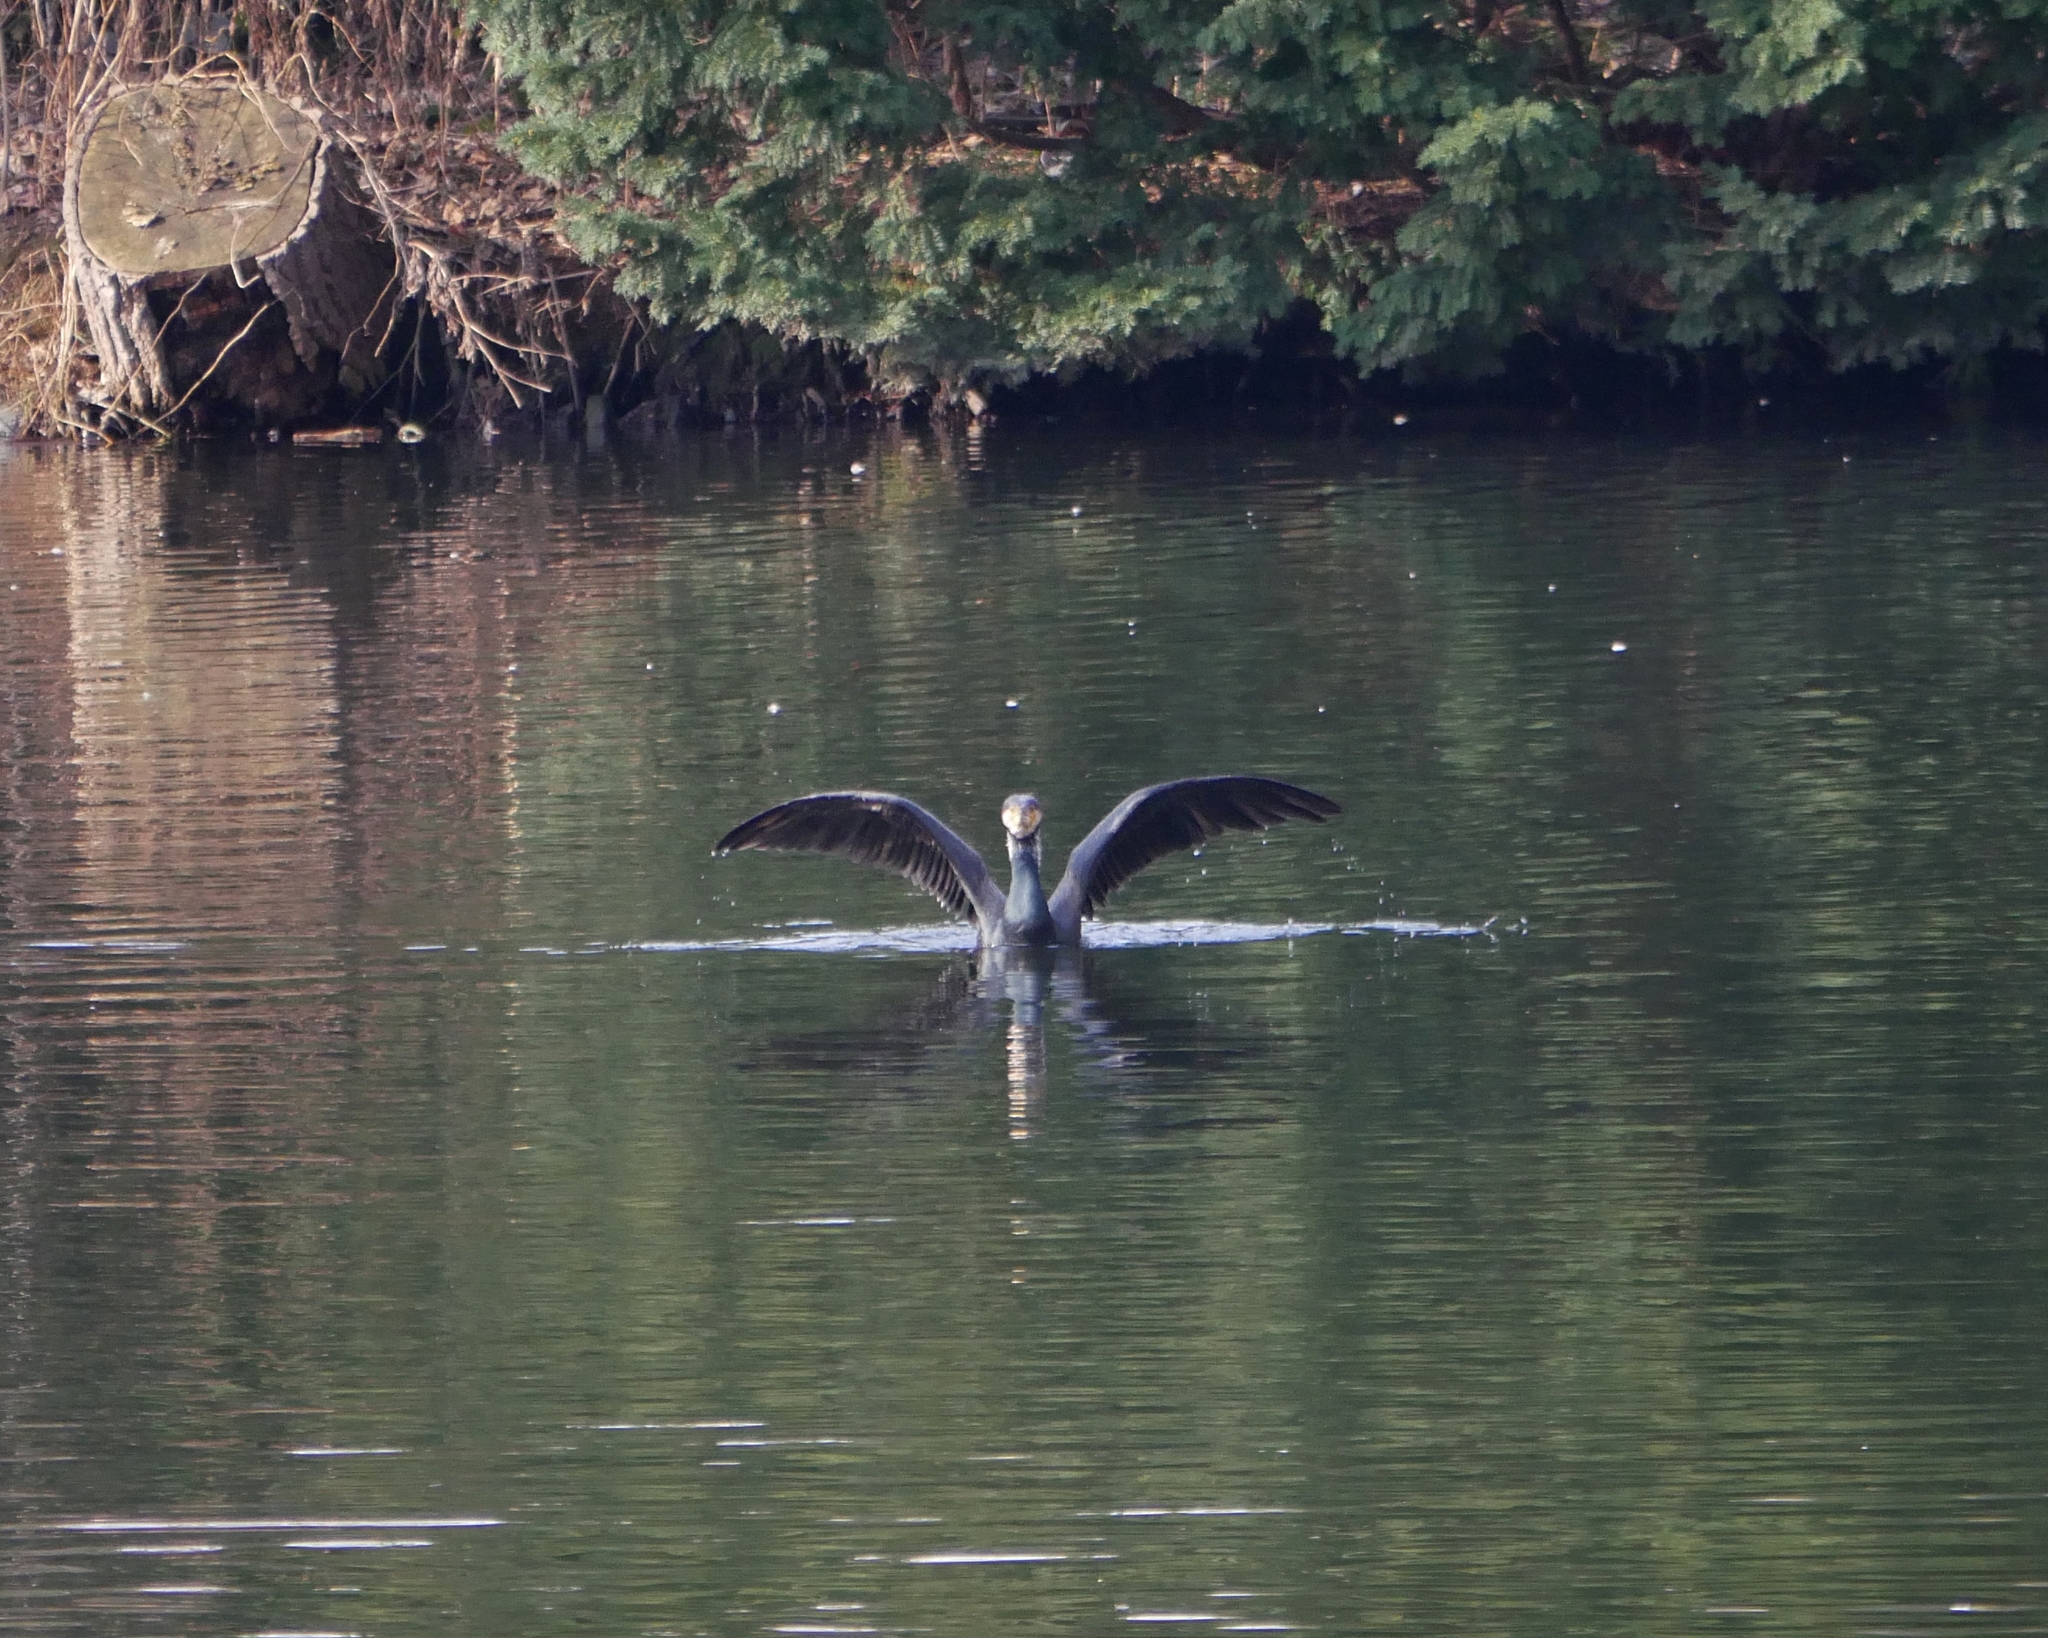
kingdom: Animalia
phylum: Chordata
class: Aves
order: Suliformes
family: Phalacrocoracidae
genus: Phalacrocorax
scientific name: Phalacrocorax carbo
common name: Great cormorant
